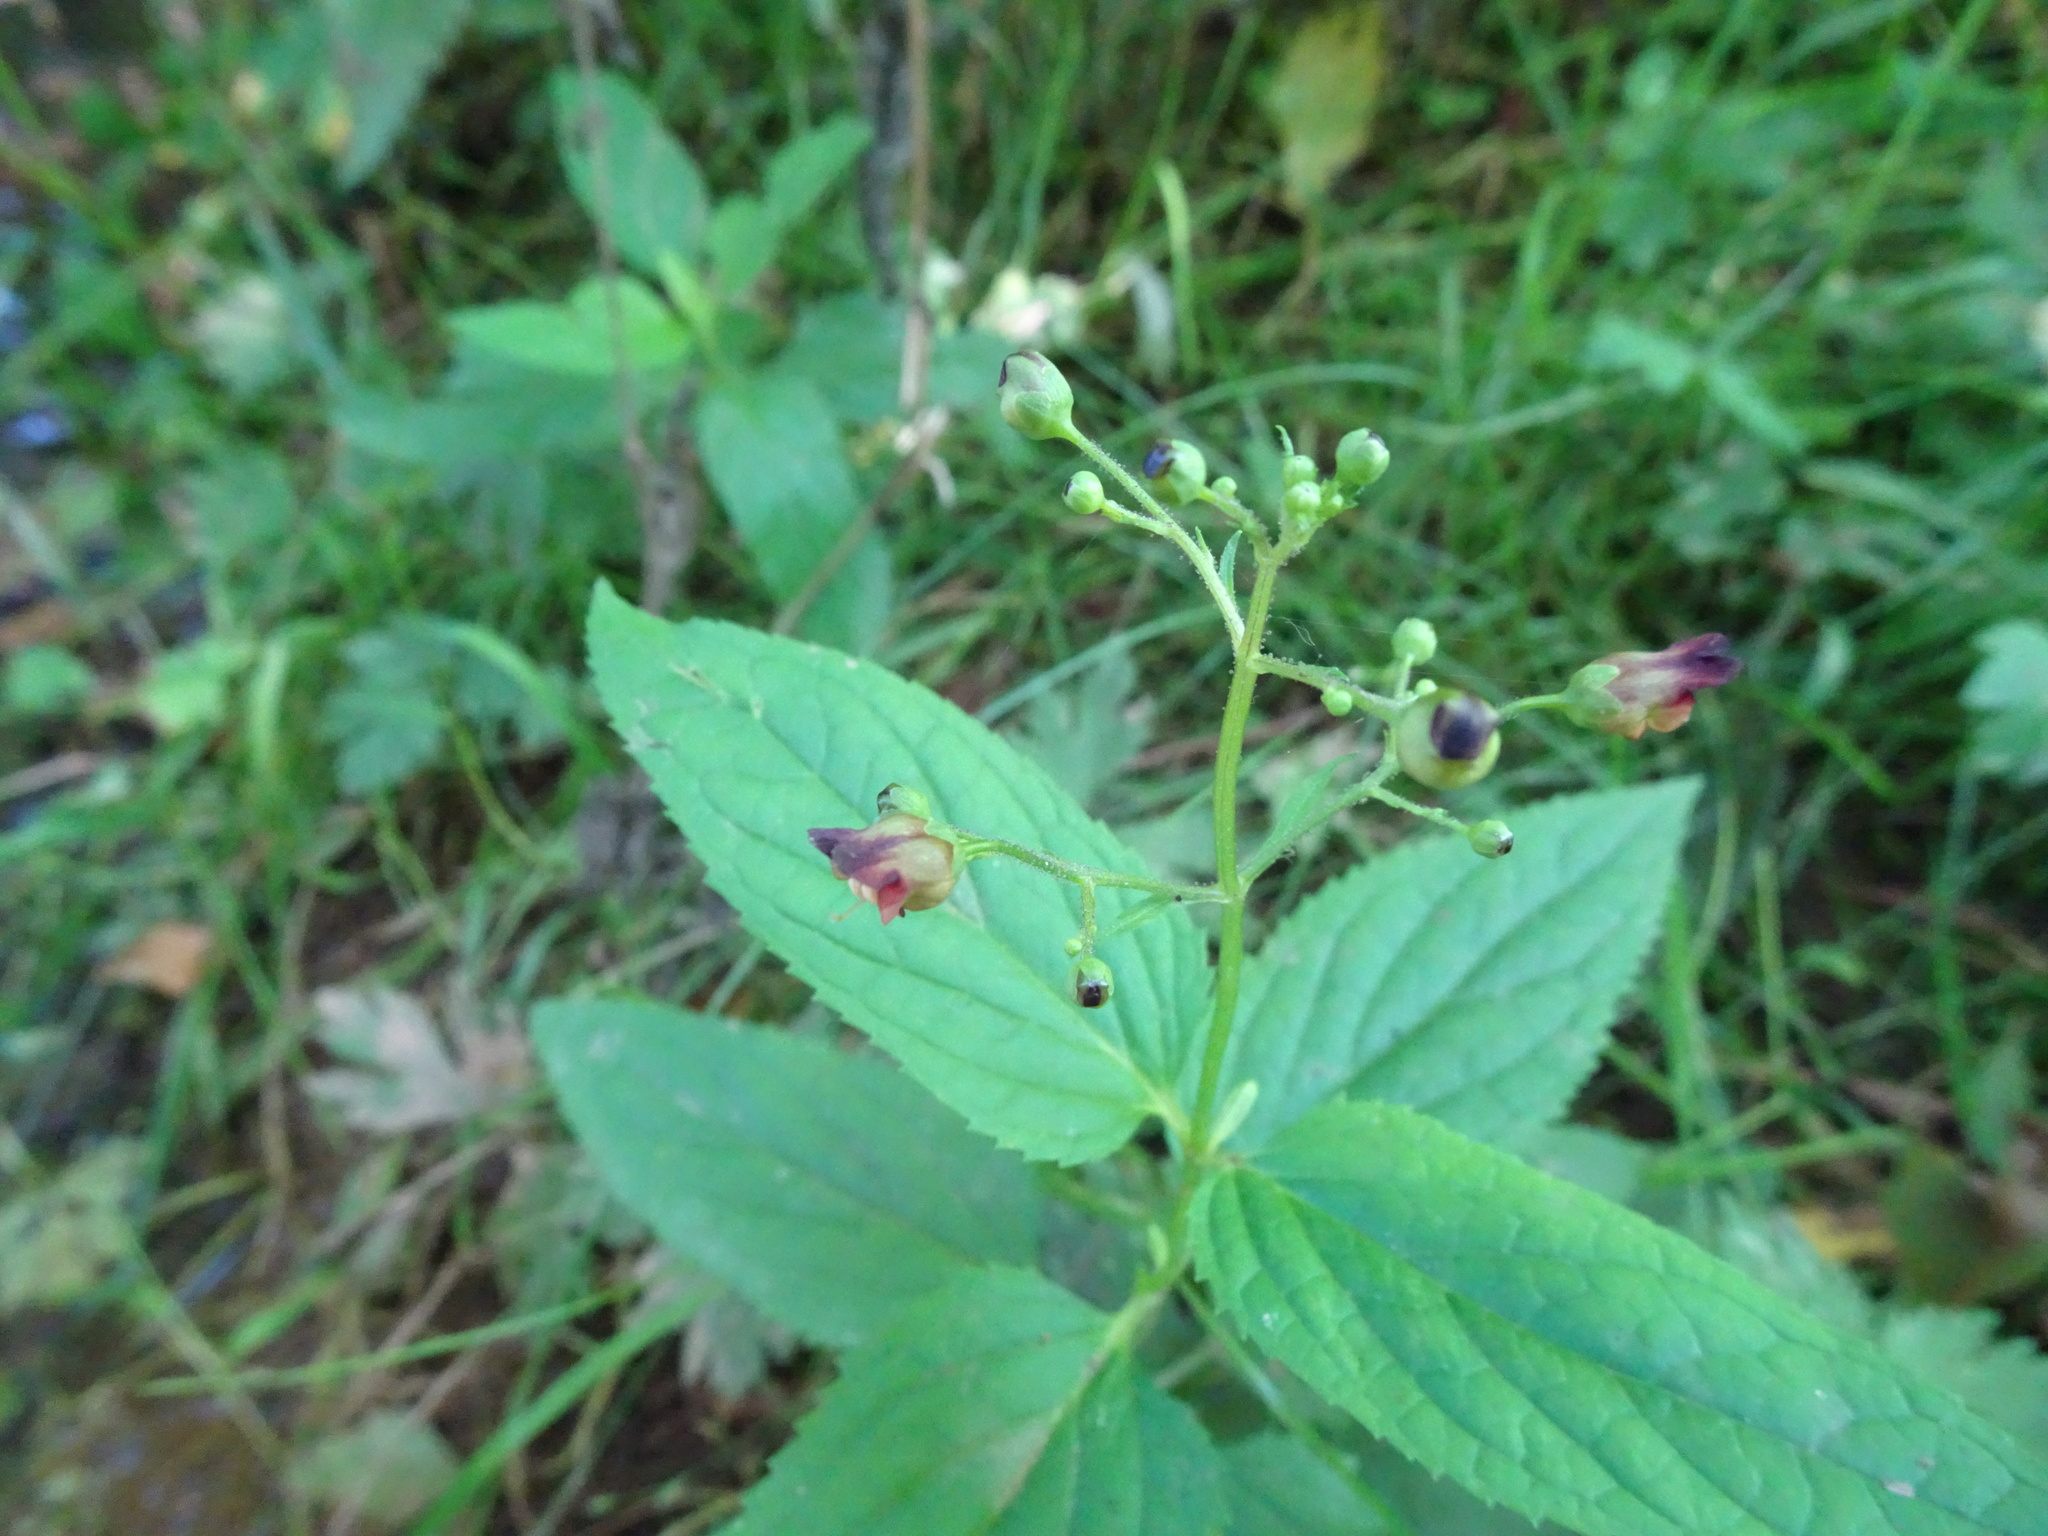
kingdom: Plantae
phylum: Tracheophyta
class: Magnoliopsida
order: Lamiales
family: Scrophulariaceae
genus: Scrophularia
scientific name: Scrophularia nodosa
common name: Common figwort
